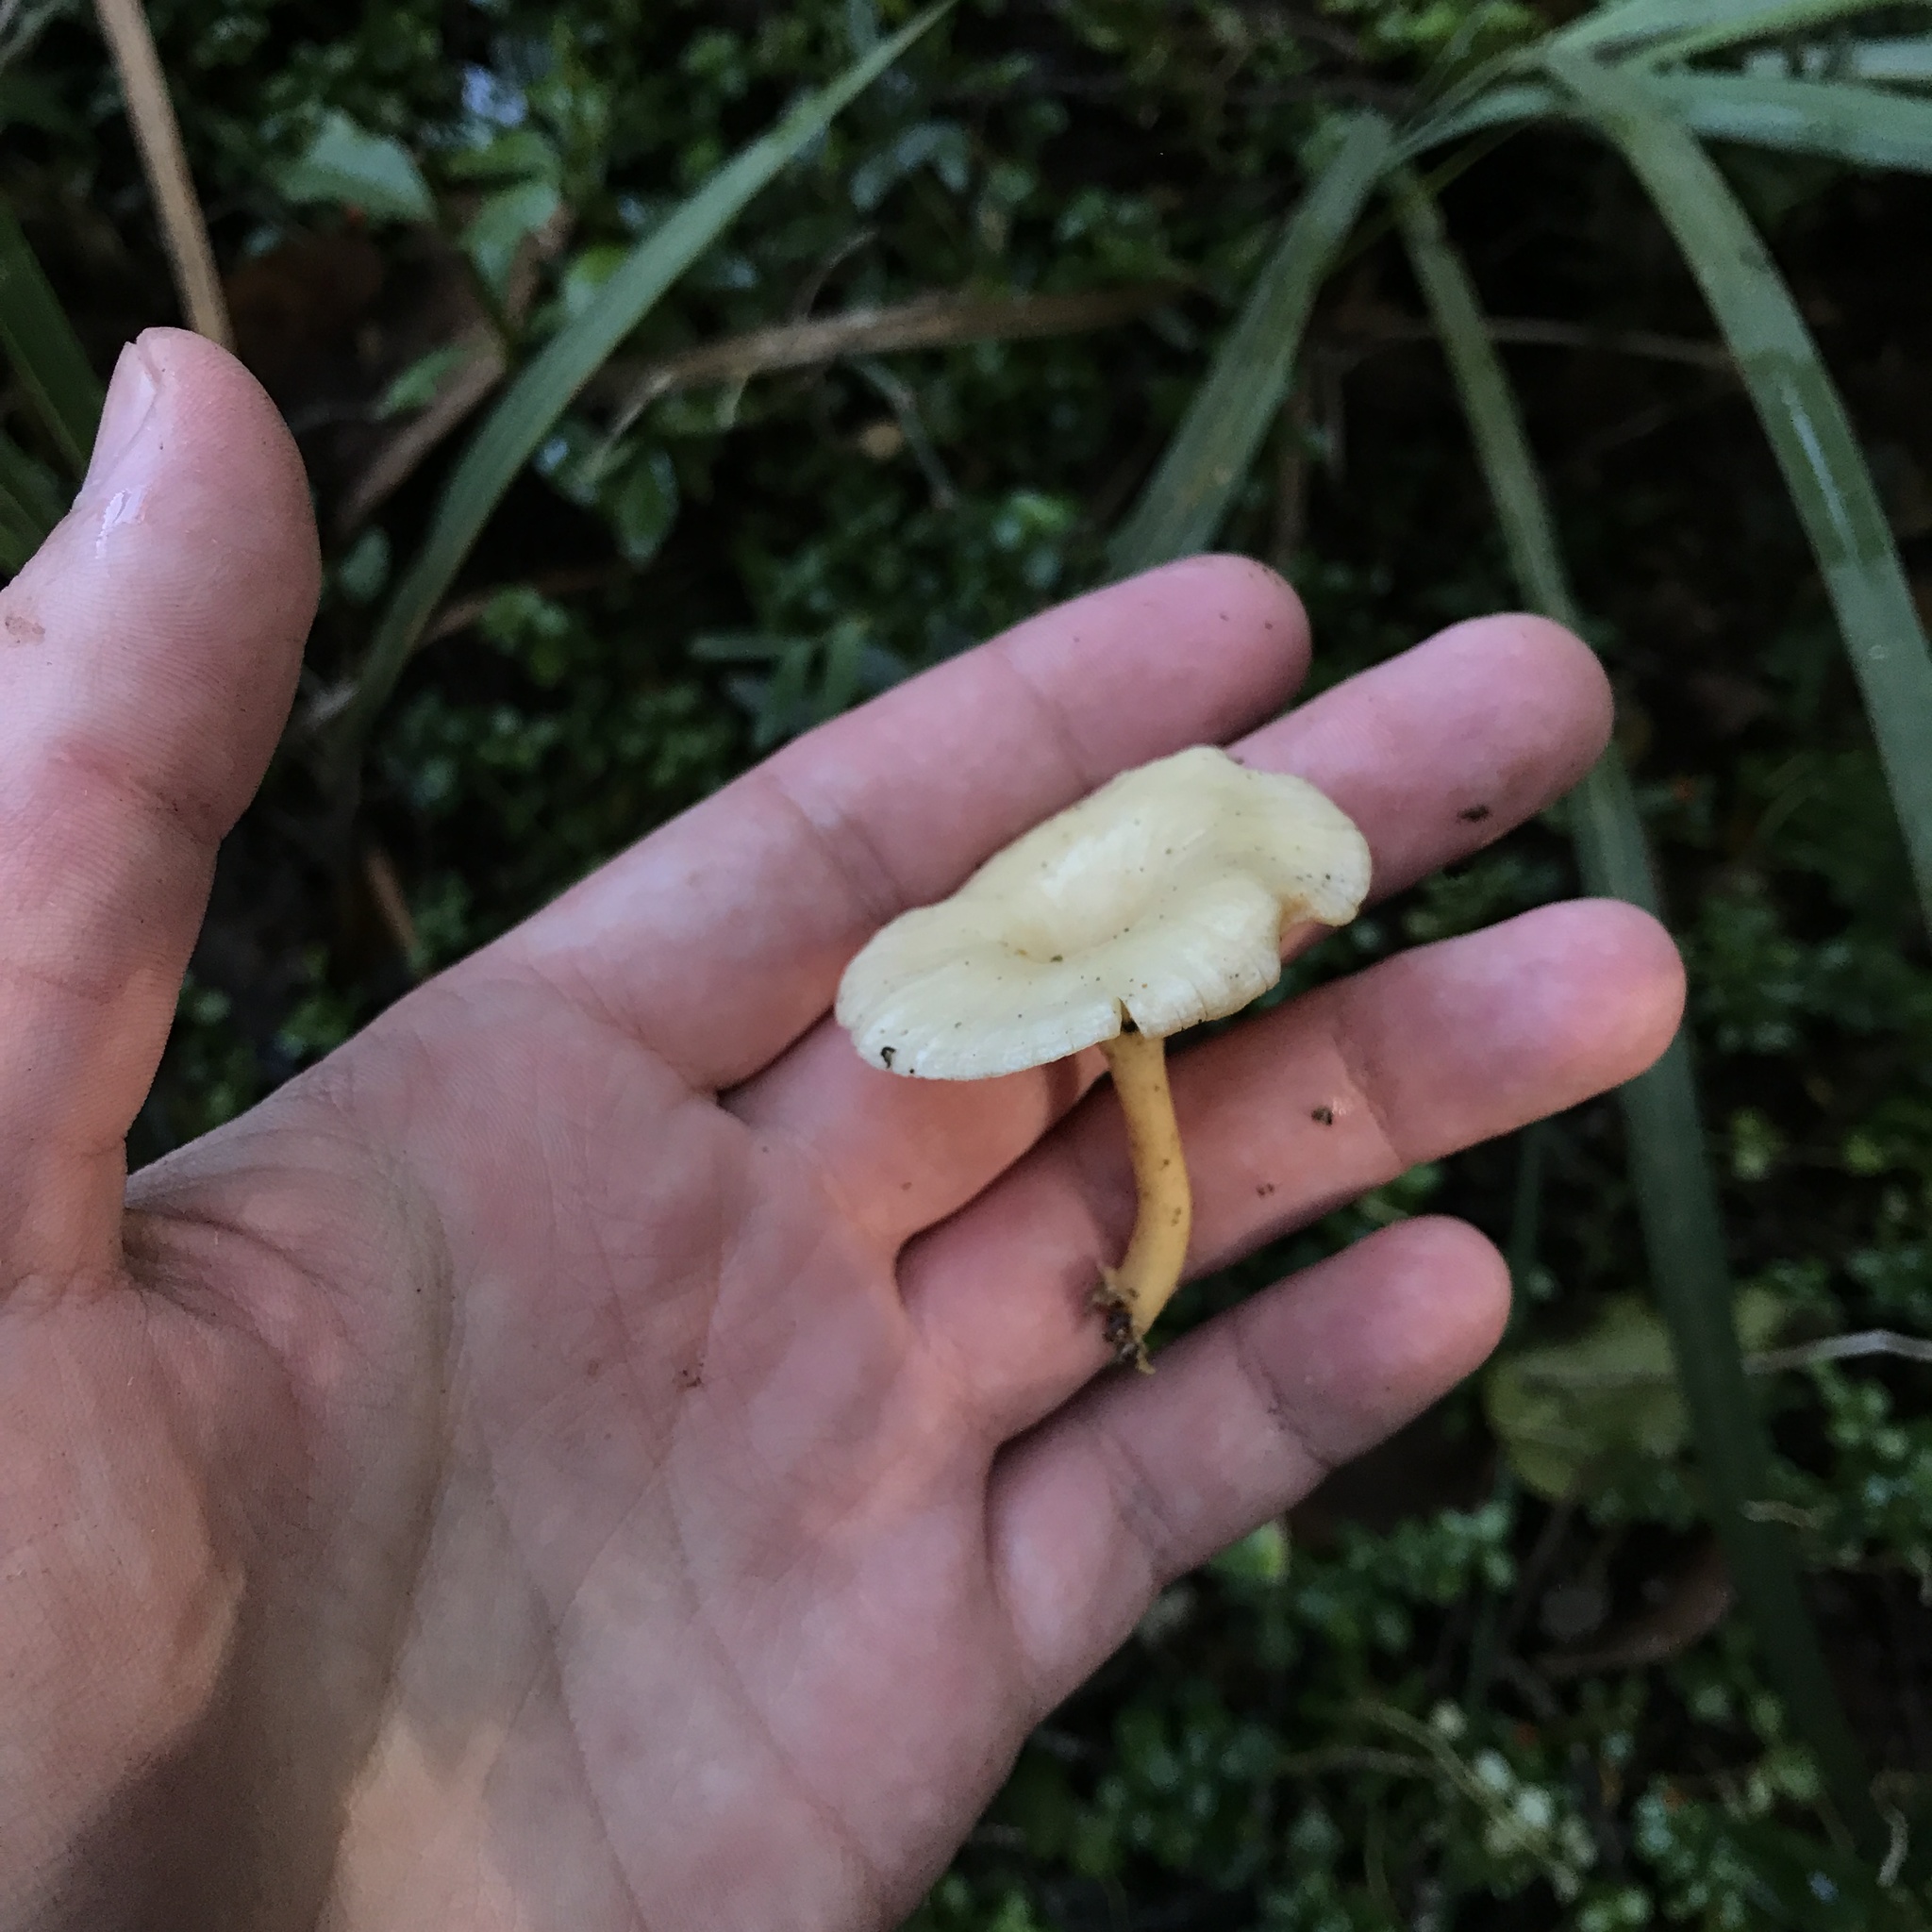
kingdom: Fungi
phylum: Basidiomycota
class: Agaricomycetes
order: Agaricales
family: Mycenaceae
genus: Hydropus
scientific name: Hydropus dusenii
